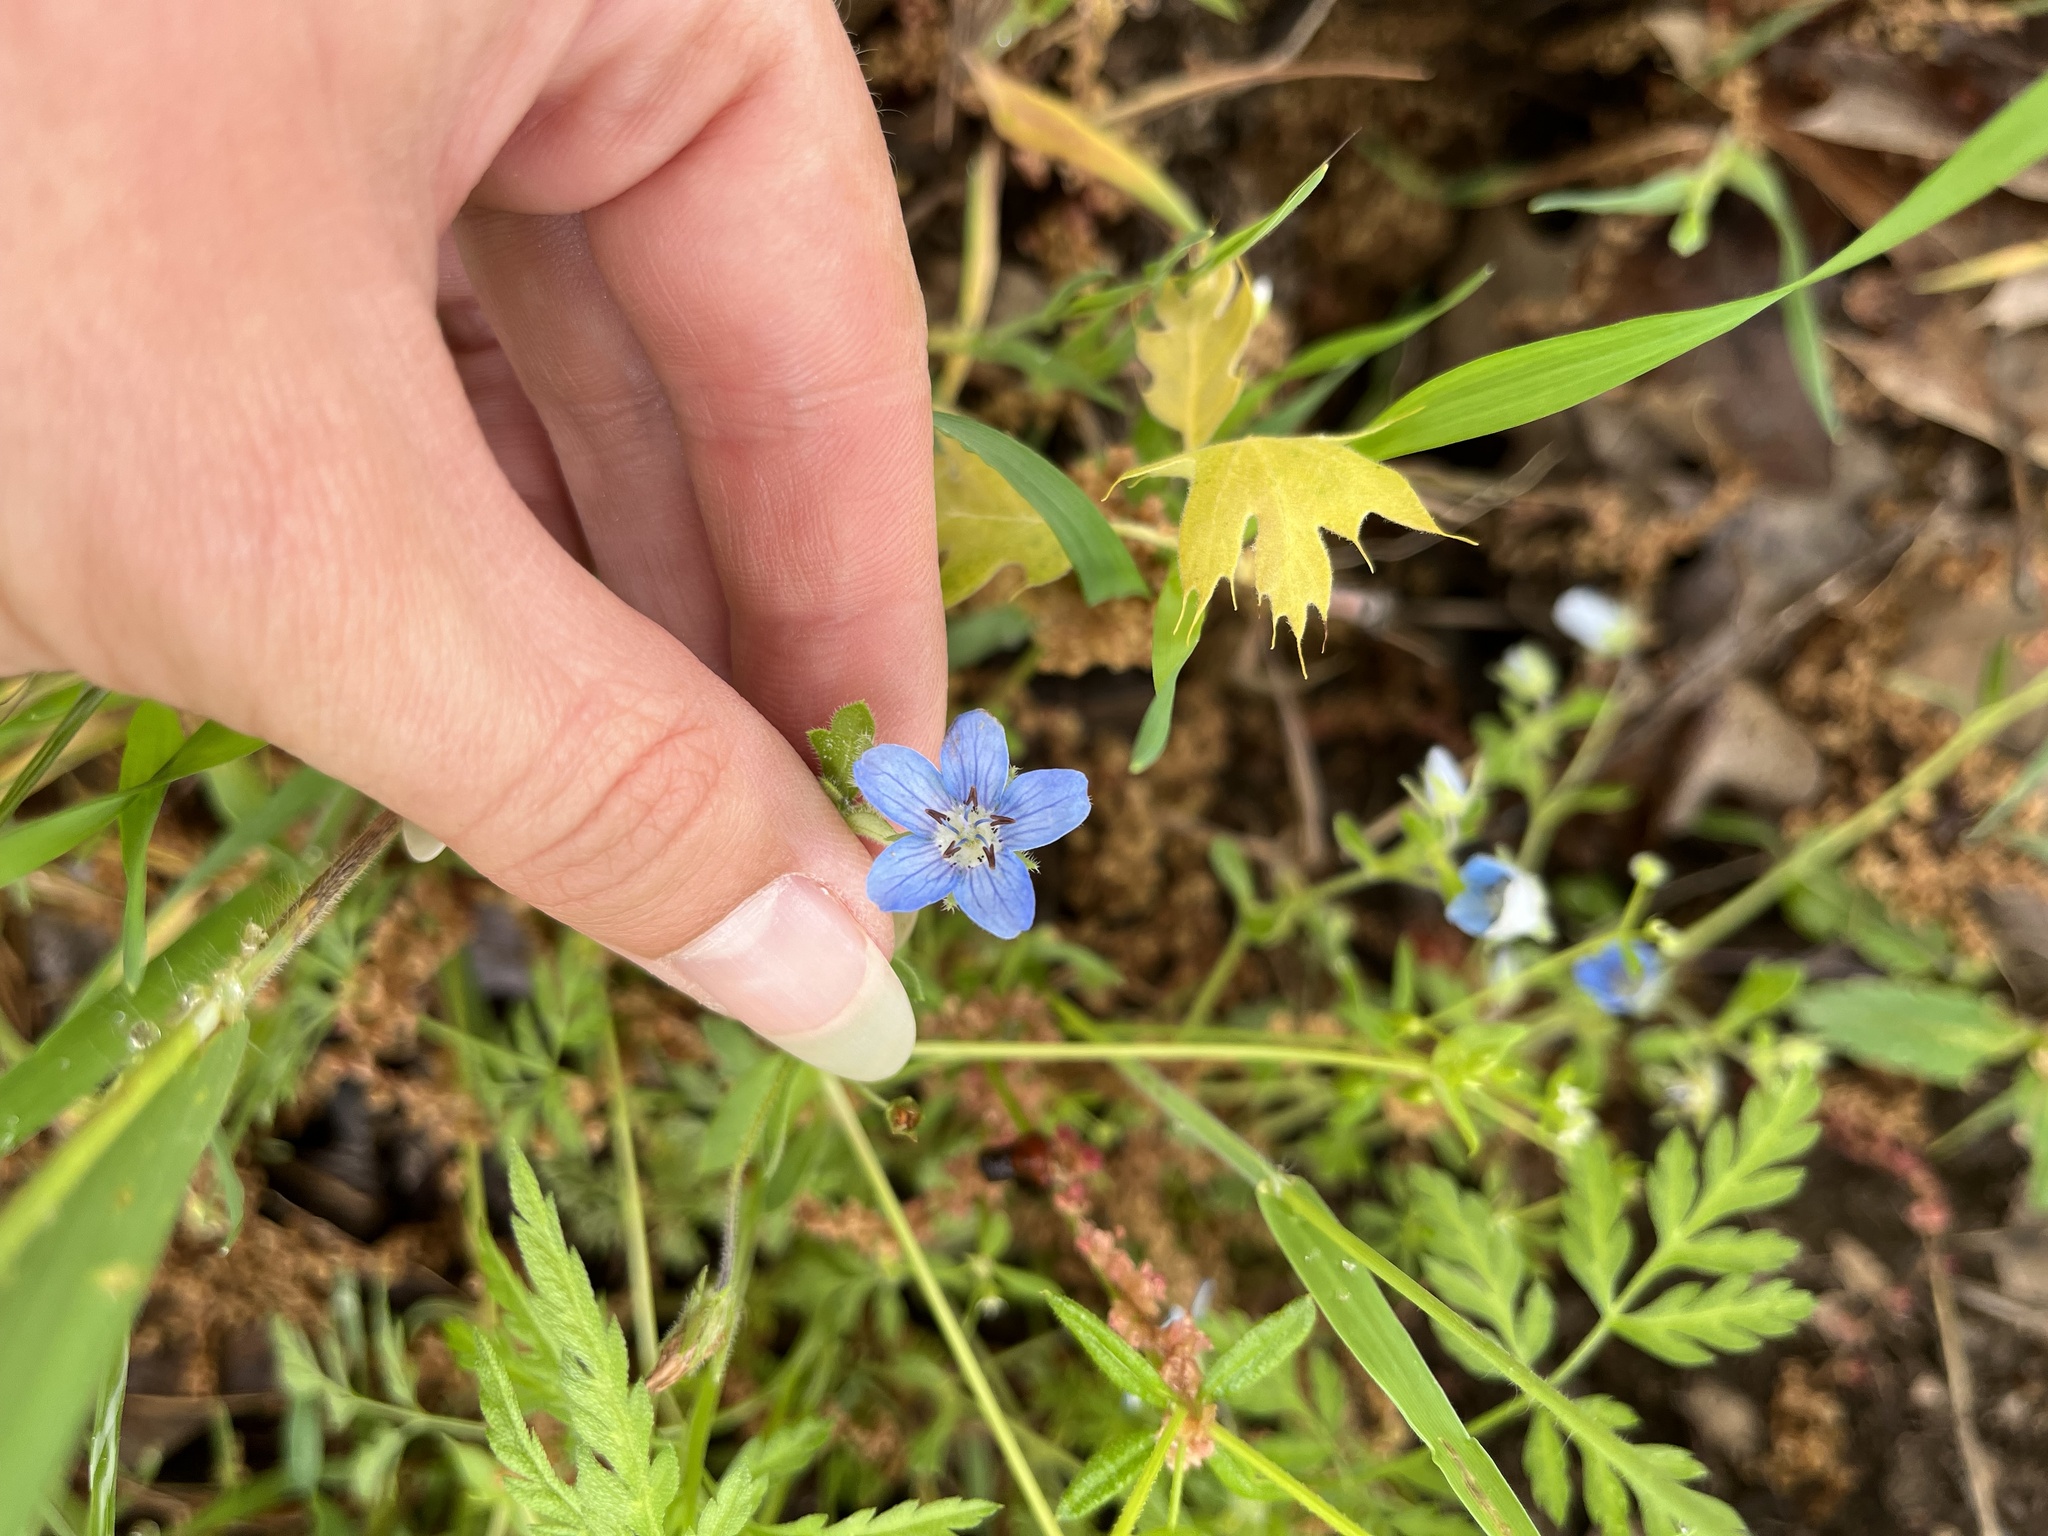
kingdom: Plantae
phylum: Tracheophyta
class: Magnoliopsida
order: Boraginales
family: Hydrophyllaceae
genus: Nemophila
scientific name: Nemophila menziesii
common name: Baby's-blue-eyes
